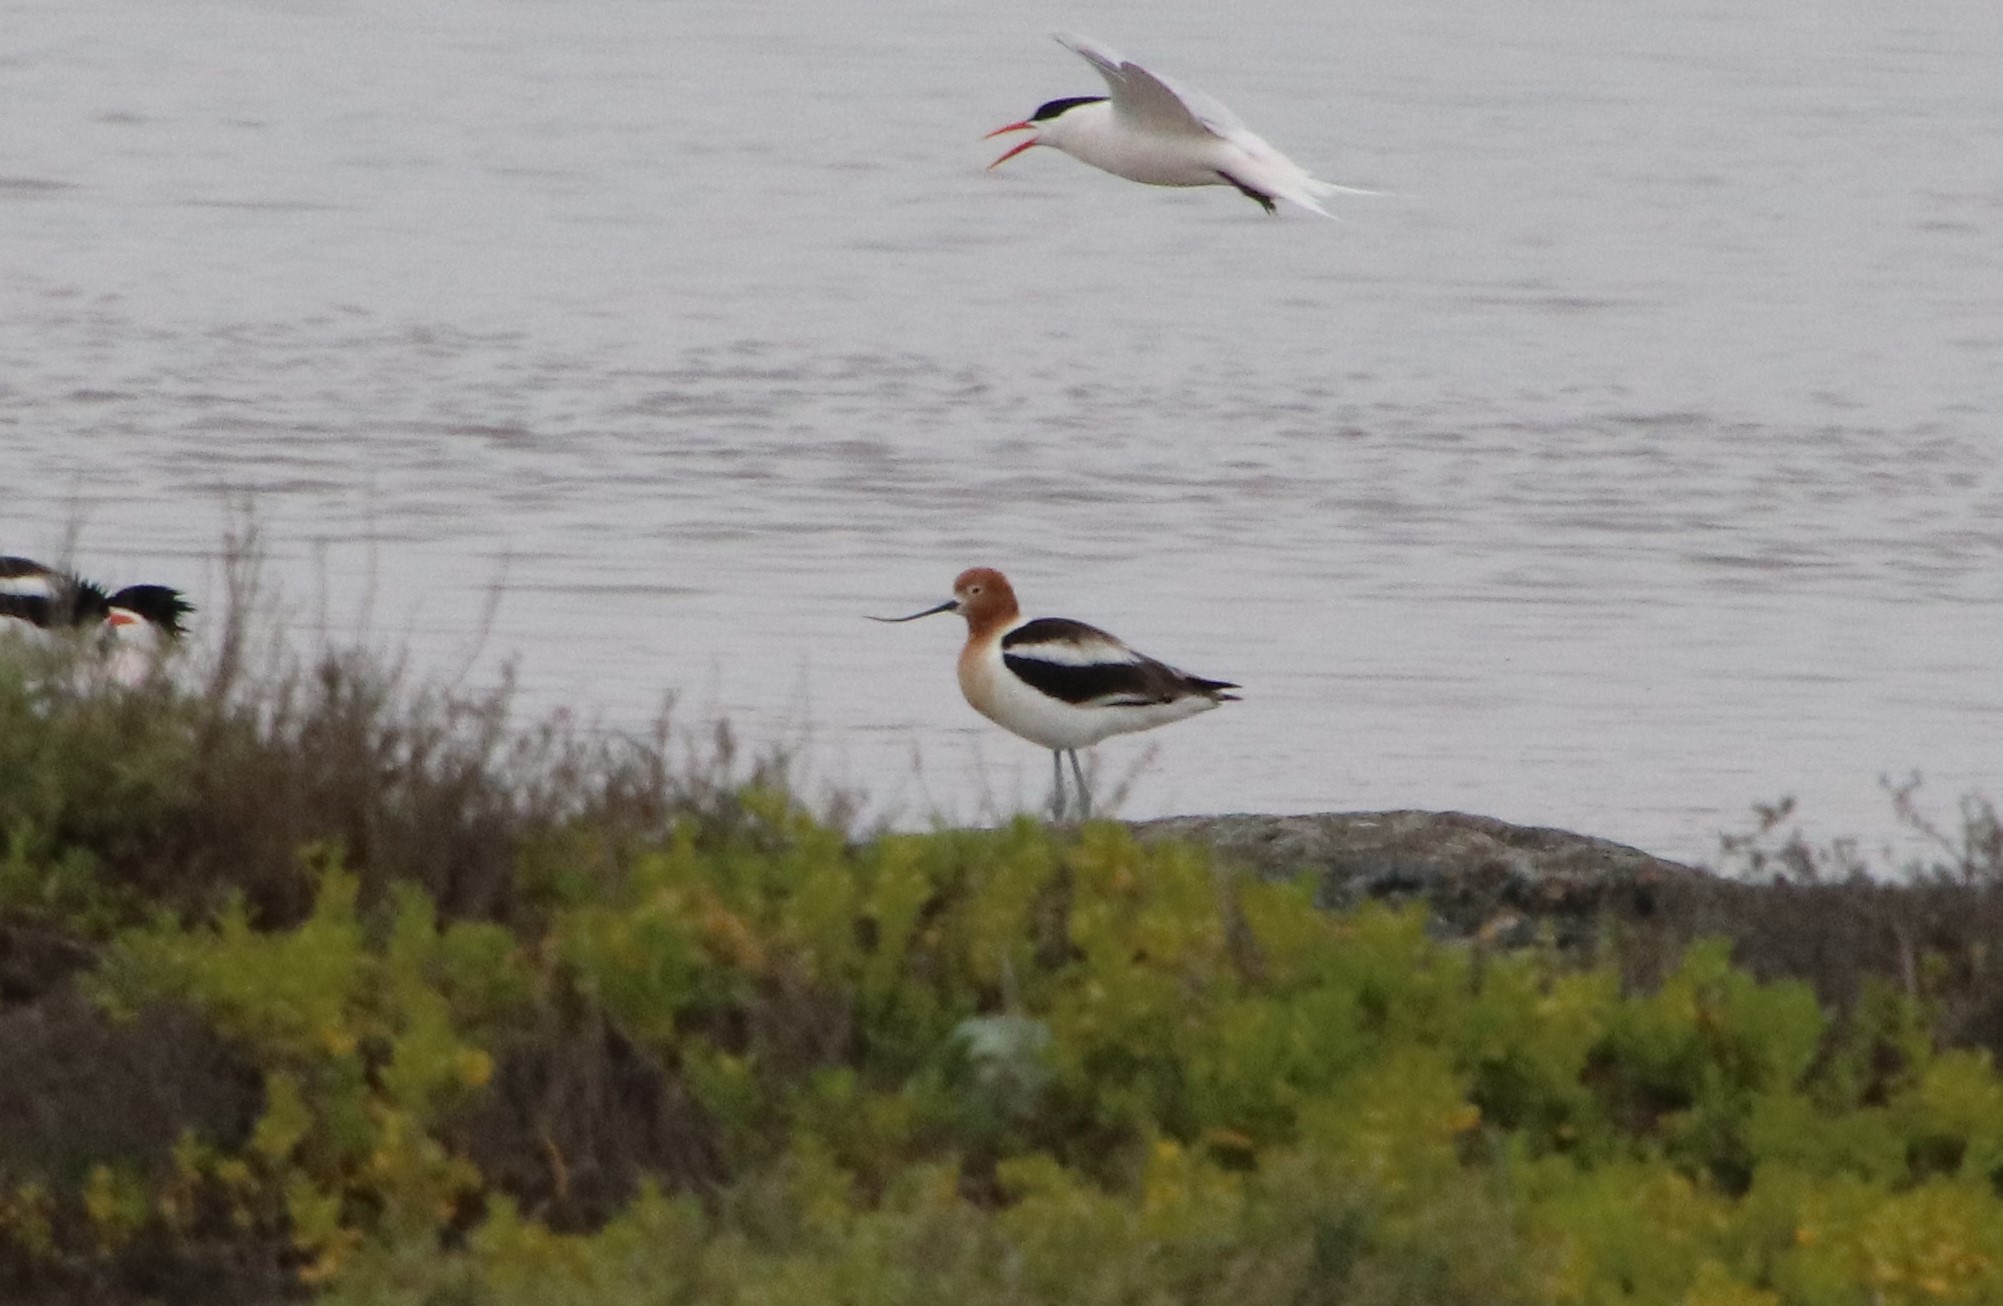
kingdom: Animalia
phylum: Chordata
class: Aves
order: Charadriiformes
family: Recurvirostridae
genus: Recurvirostra
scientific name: Recurvirostra americana
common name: American avocet
